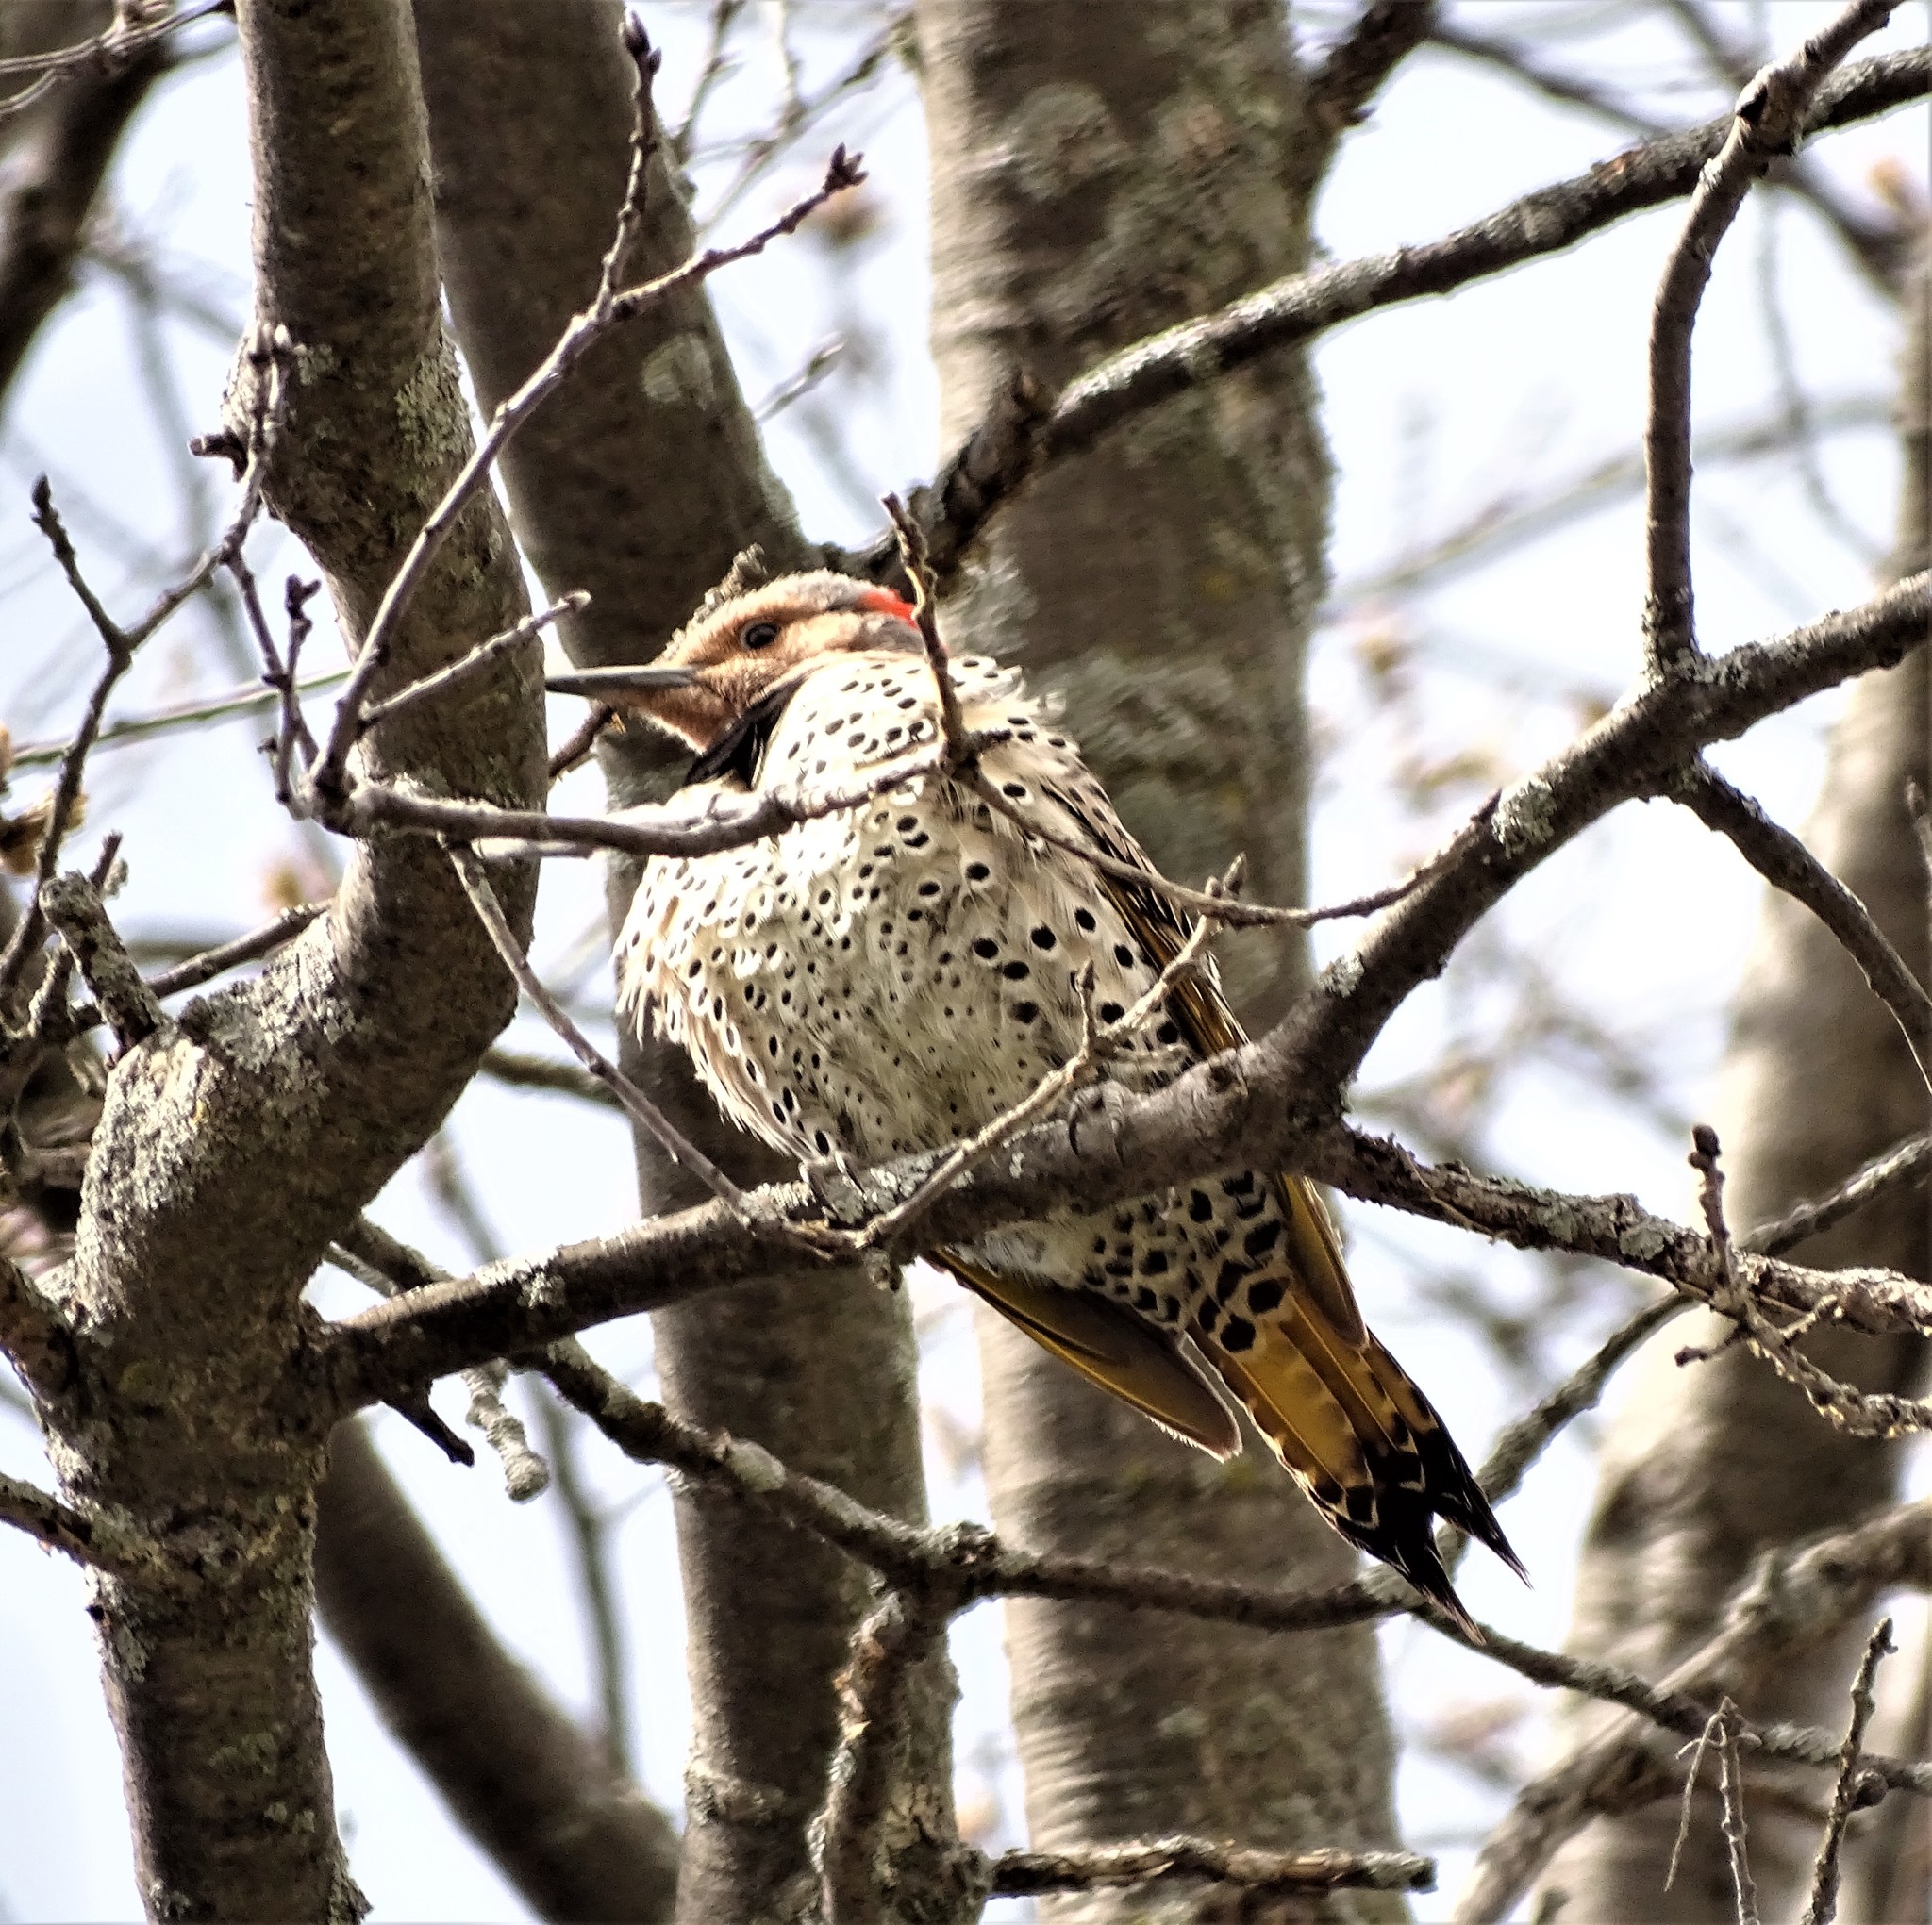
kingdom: Animalia
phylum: Chordata
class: Aves
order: Piciformes
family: Picidae
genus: Colaptes
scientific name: Colaptes auratus
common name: Northern flicker
